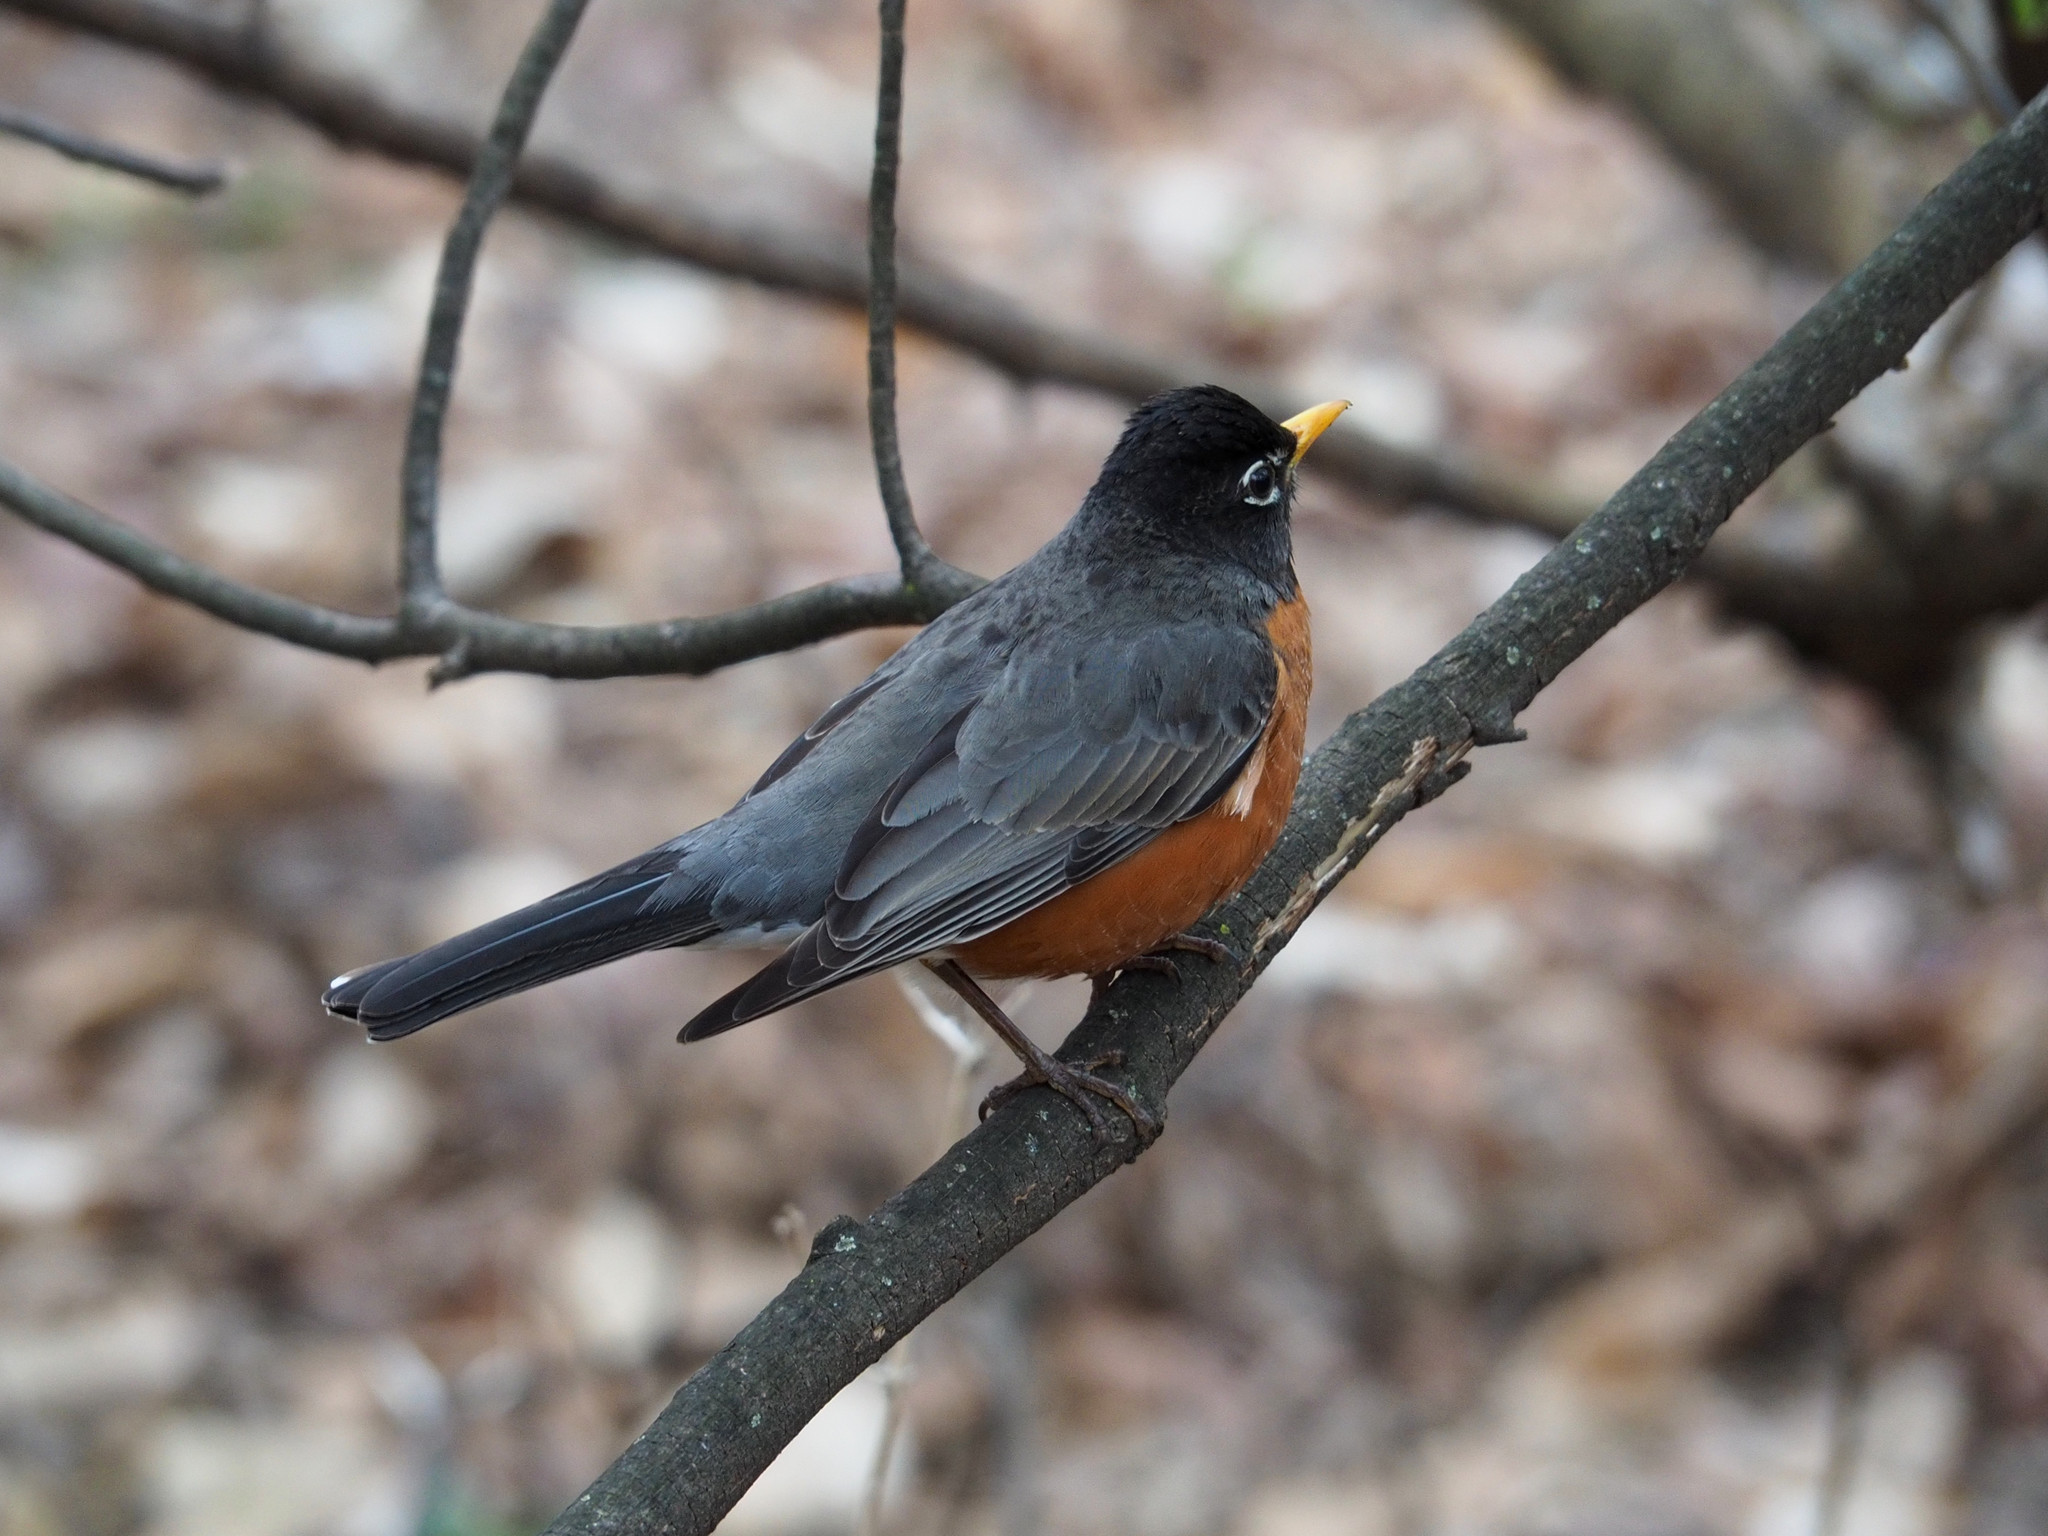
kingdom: Animalia
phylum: Chordata
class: Aves
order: Passeriformes
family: Turdidae
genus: Turdus
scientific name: Turdus migratorius
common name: American robin
